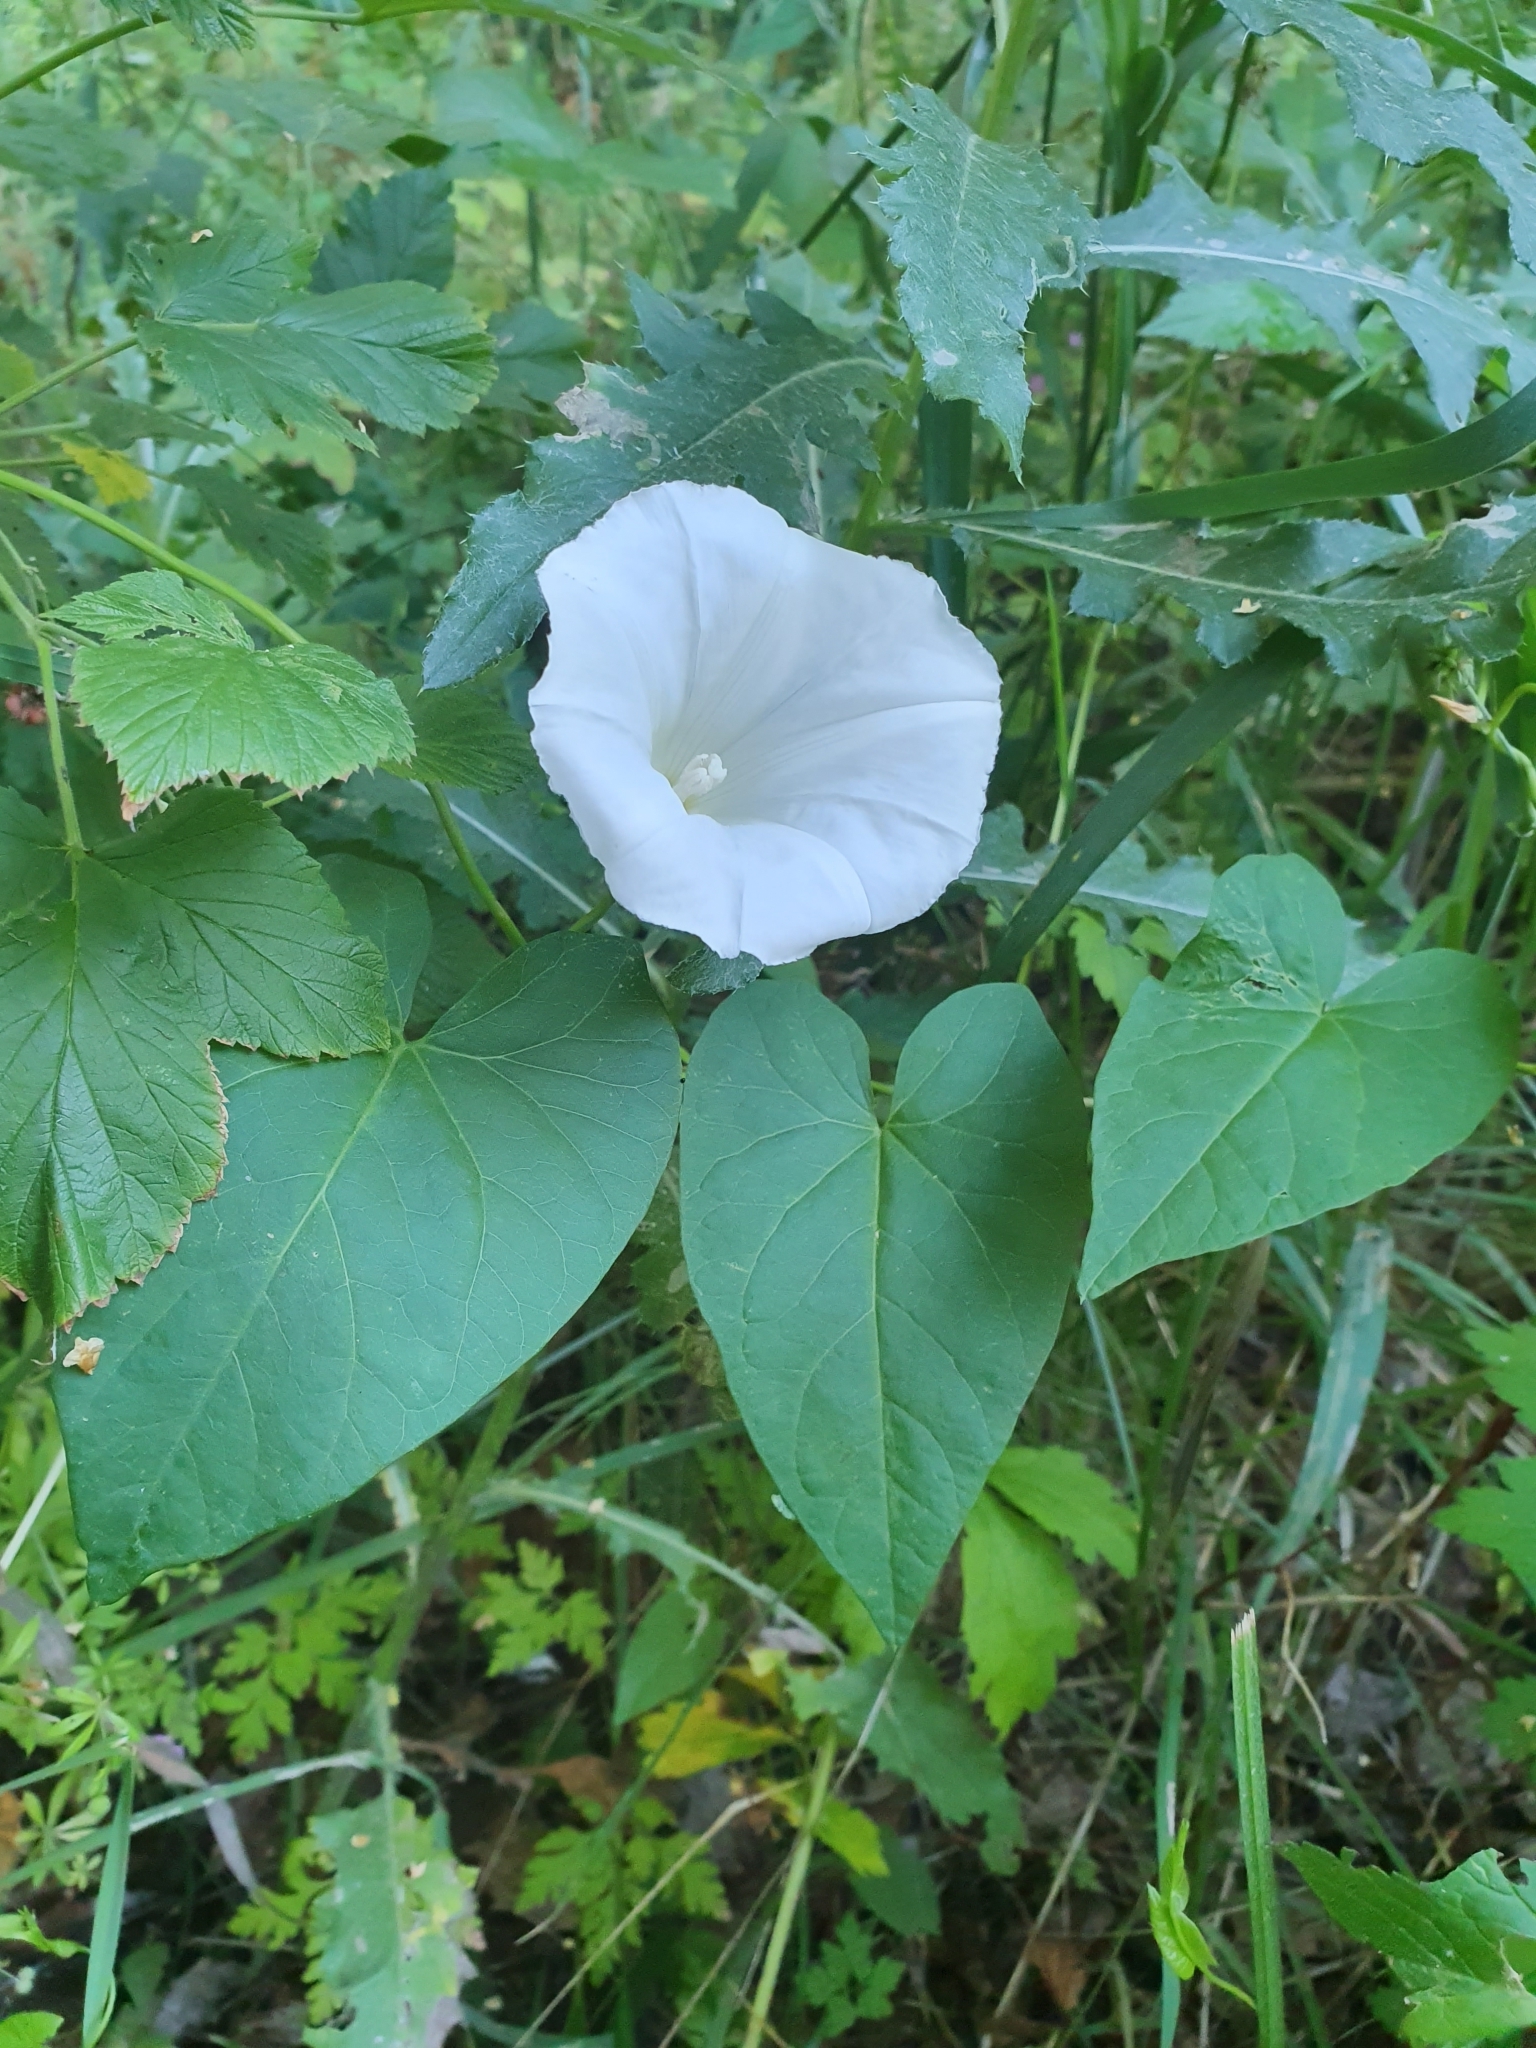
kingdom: Plantae
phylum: Tracheophyta
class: Magnoliopsida
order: Solanales
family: Convolvulaceae
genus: Calystegia
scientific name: Calystegia sepium
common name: Hedge bindweed
